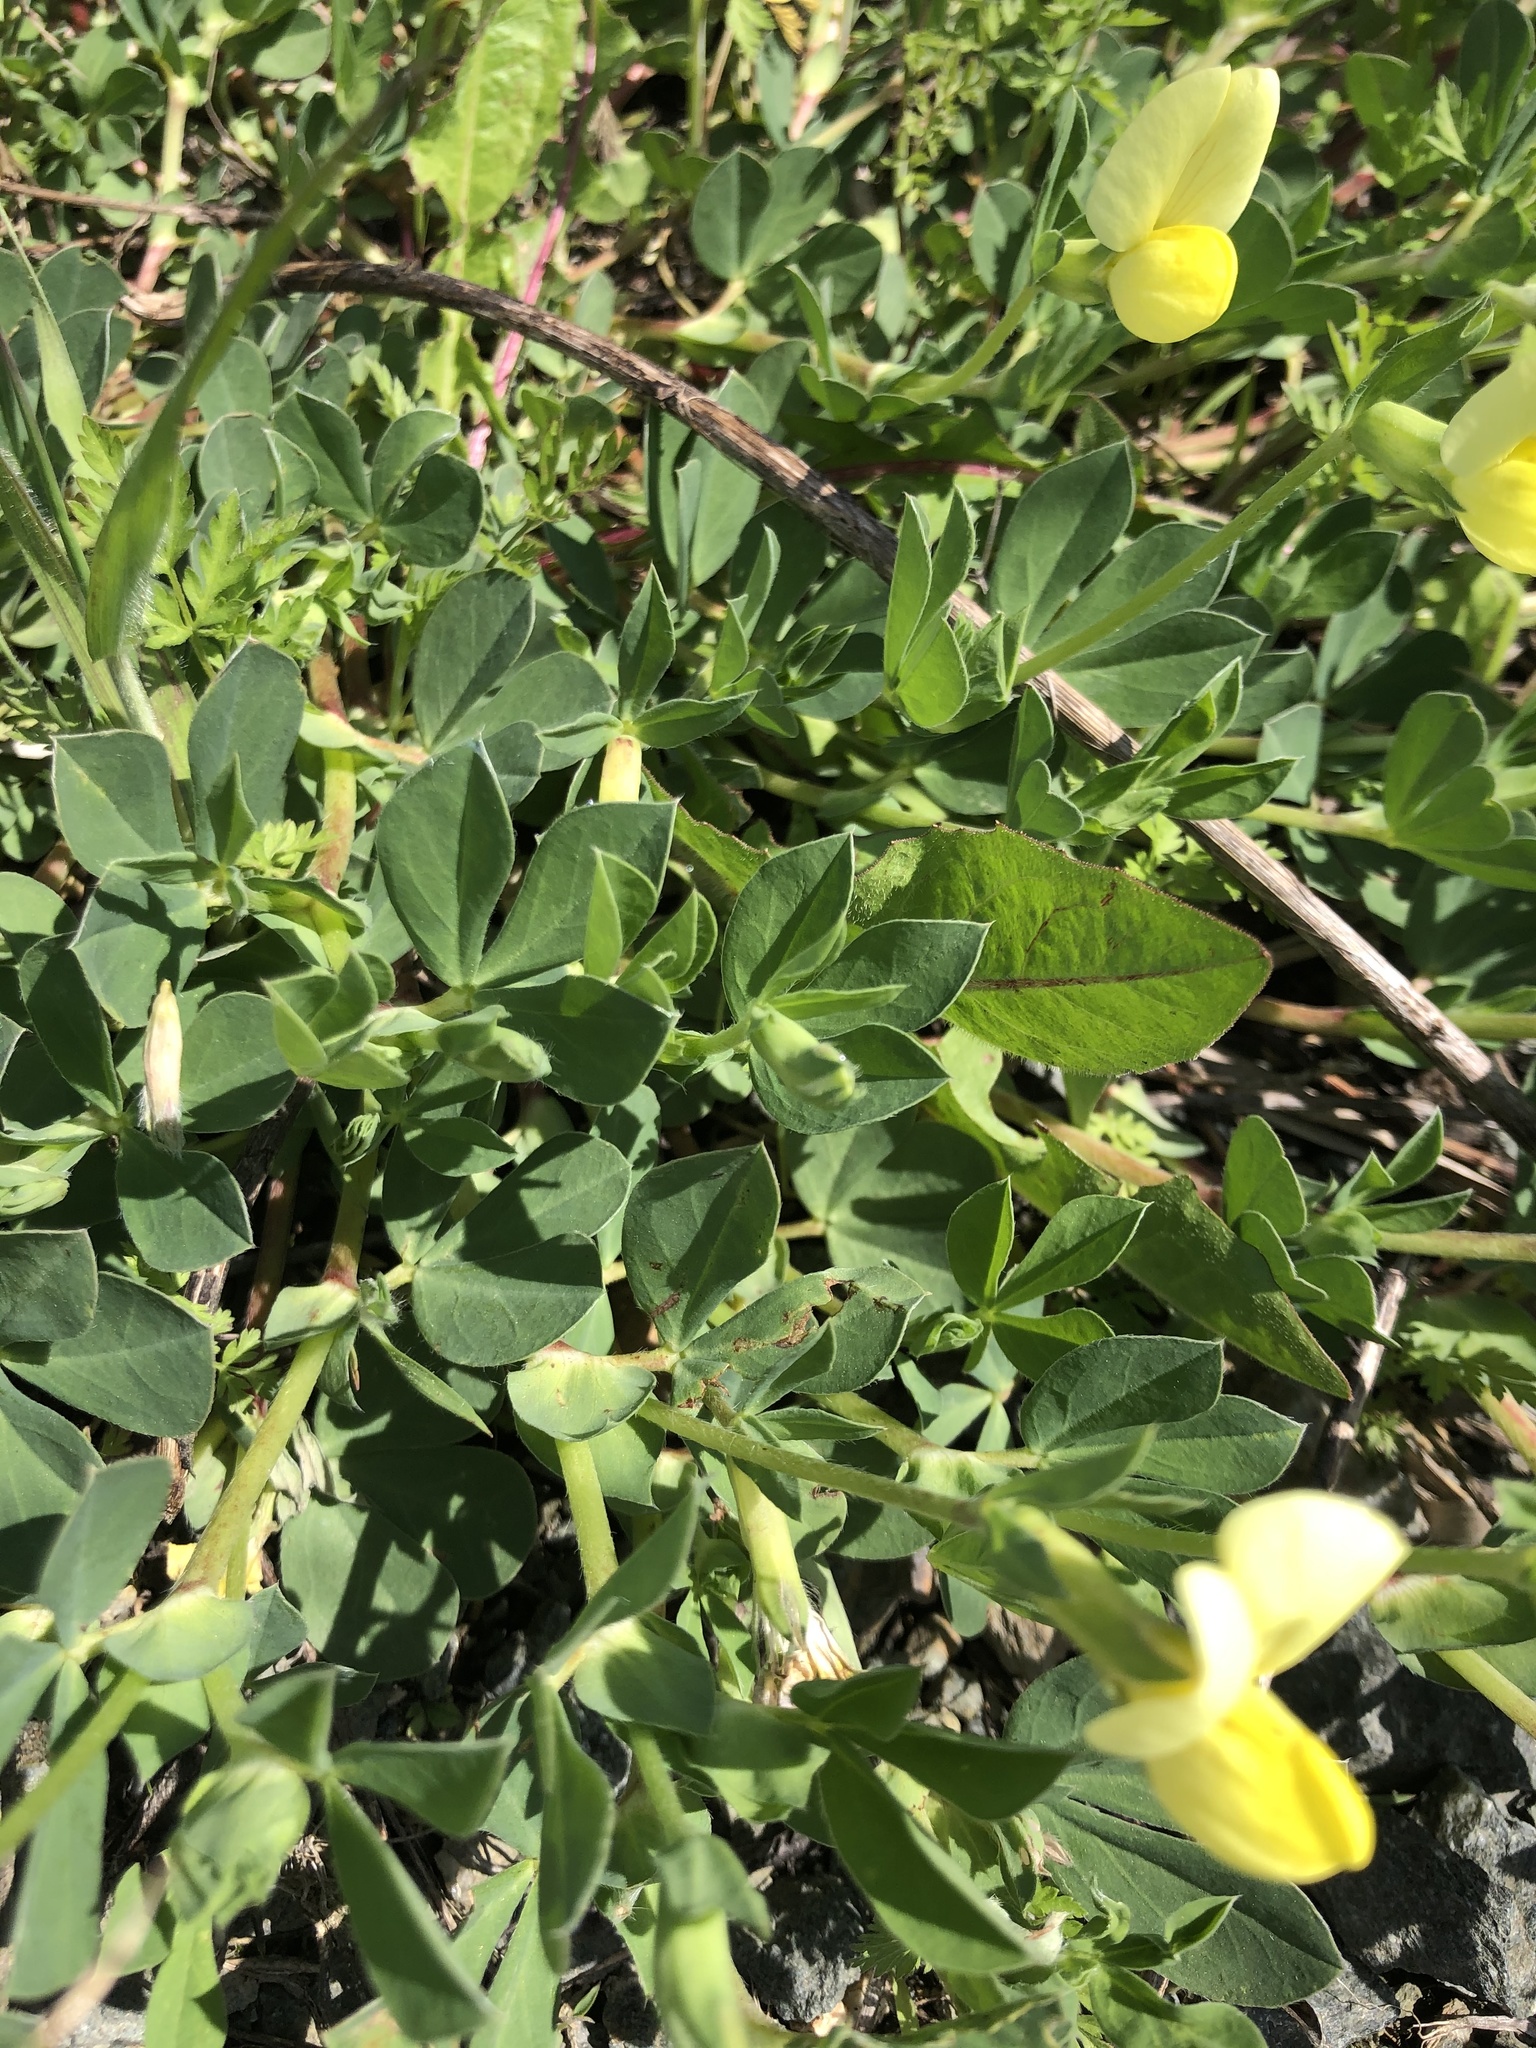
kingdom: Plantae
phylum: Tracheophyta
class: Magnoliopsida
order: Fabales
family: Fabaceae
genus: Lotus
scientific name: Lotus maritimus
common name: Dragon's-teeth
